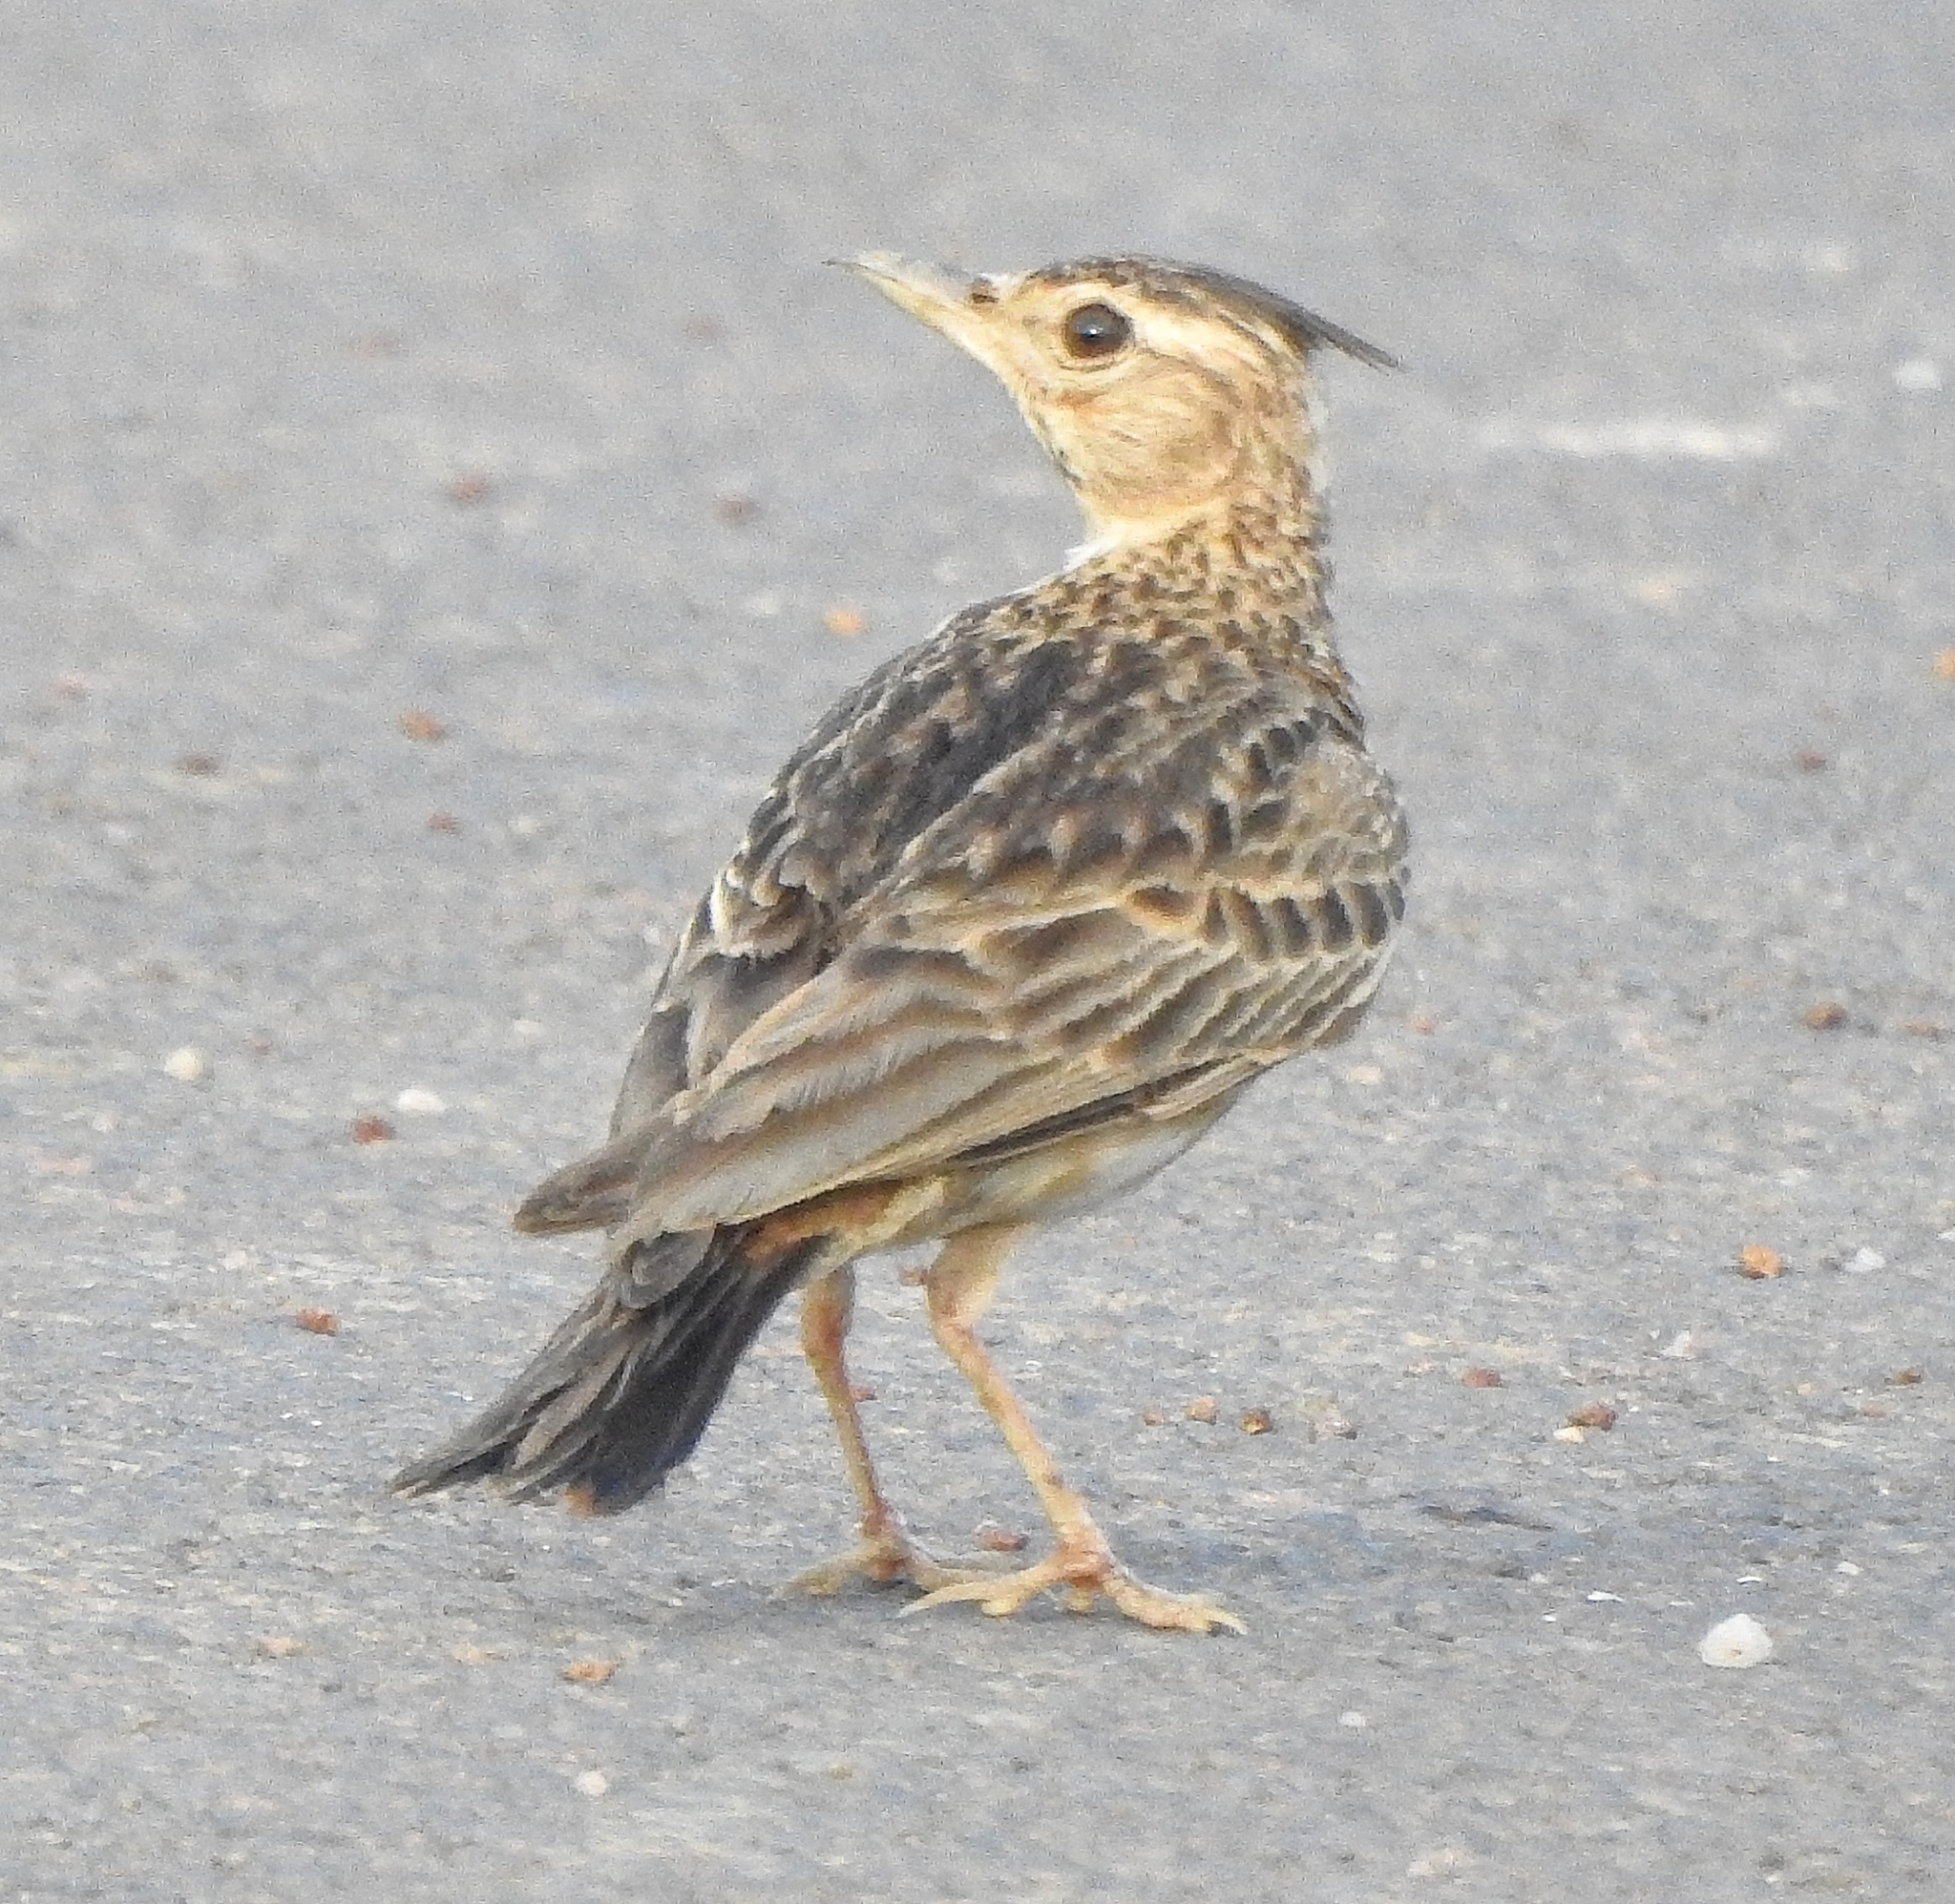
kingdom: Animalia
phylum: Chordata
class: Aves
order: Passeriformes
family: Alaudidae
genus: Galerida
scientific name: Galerida malabarica
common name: Malabar lark
